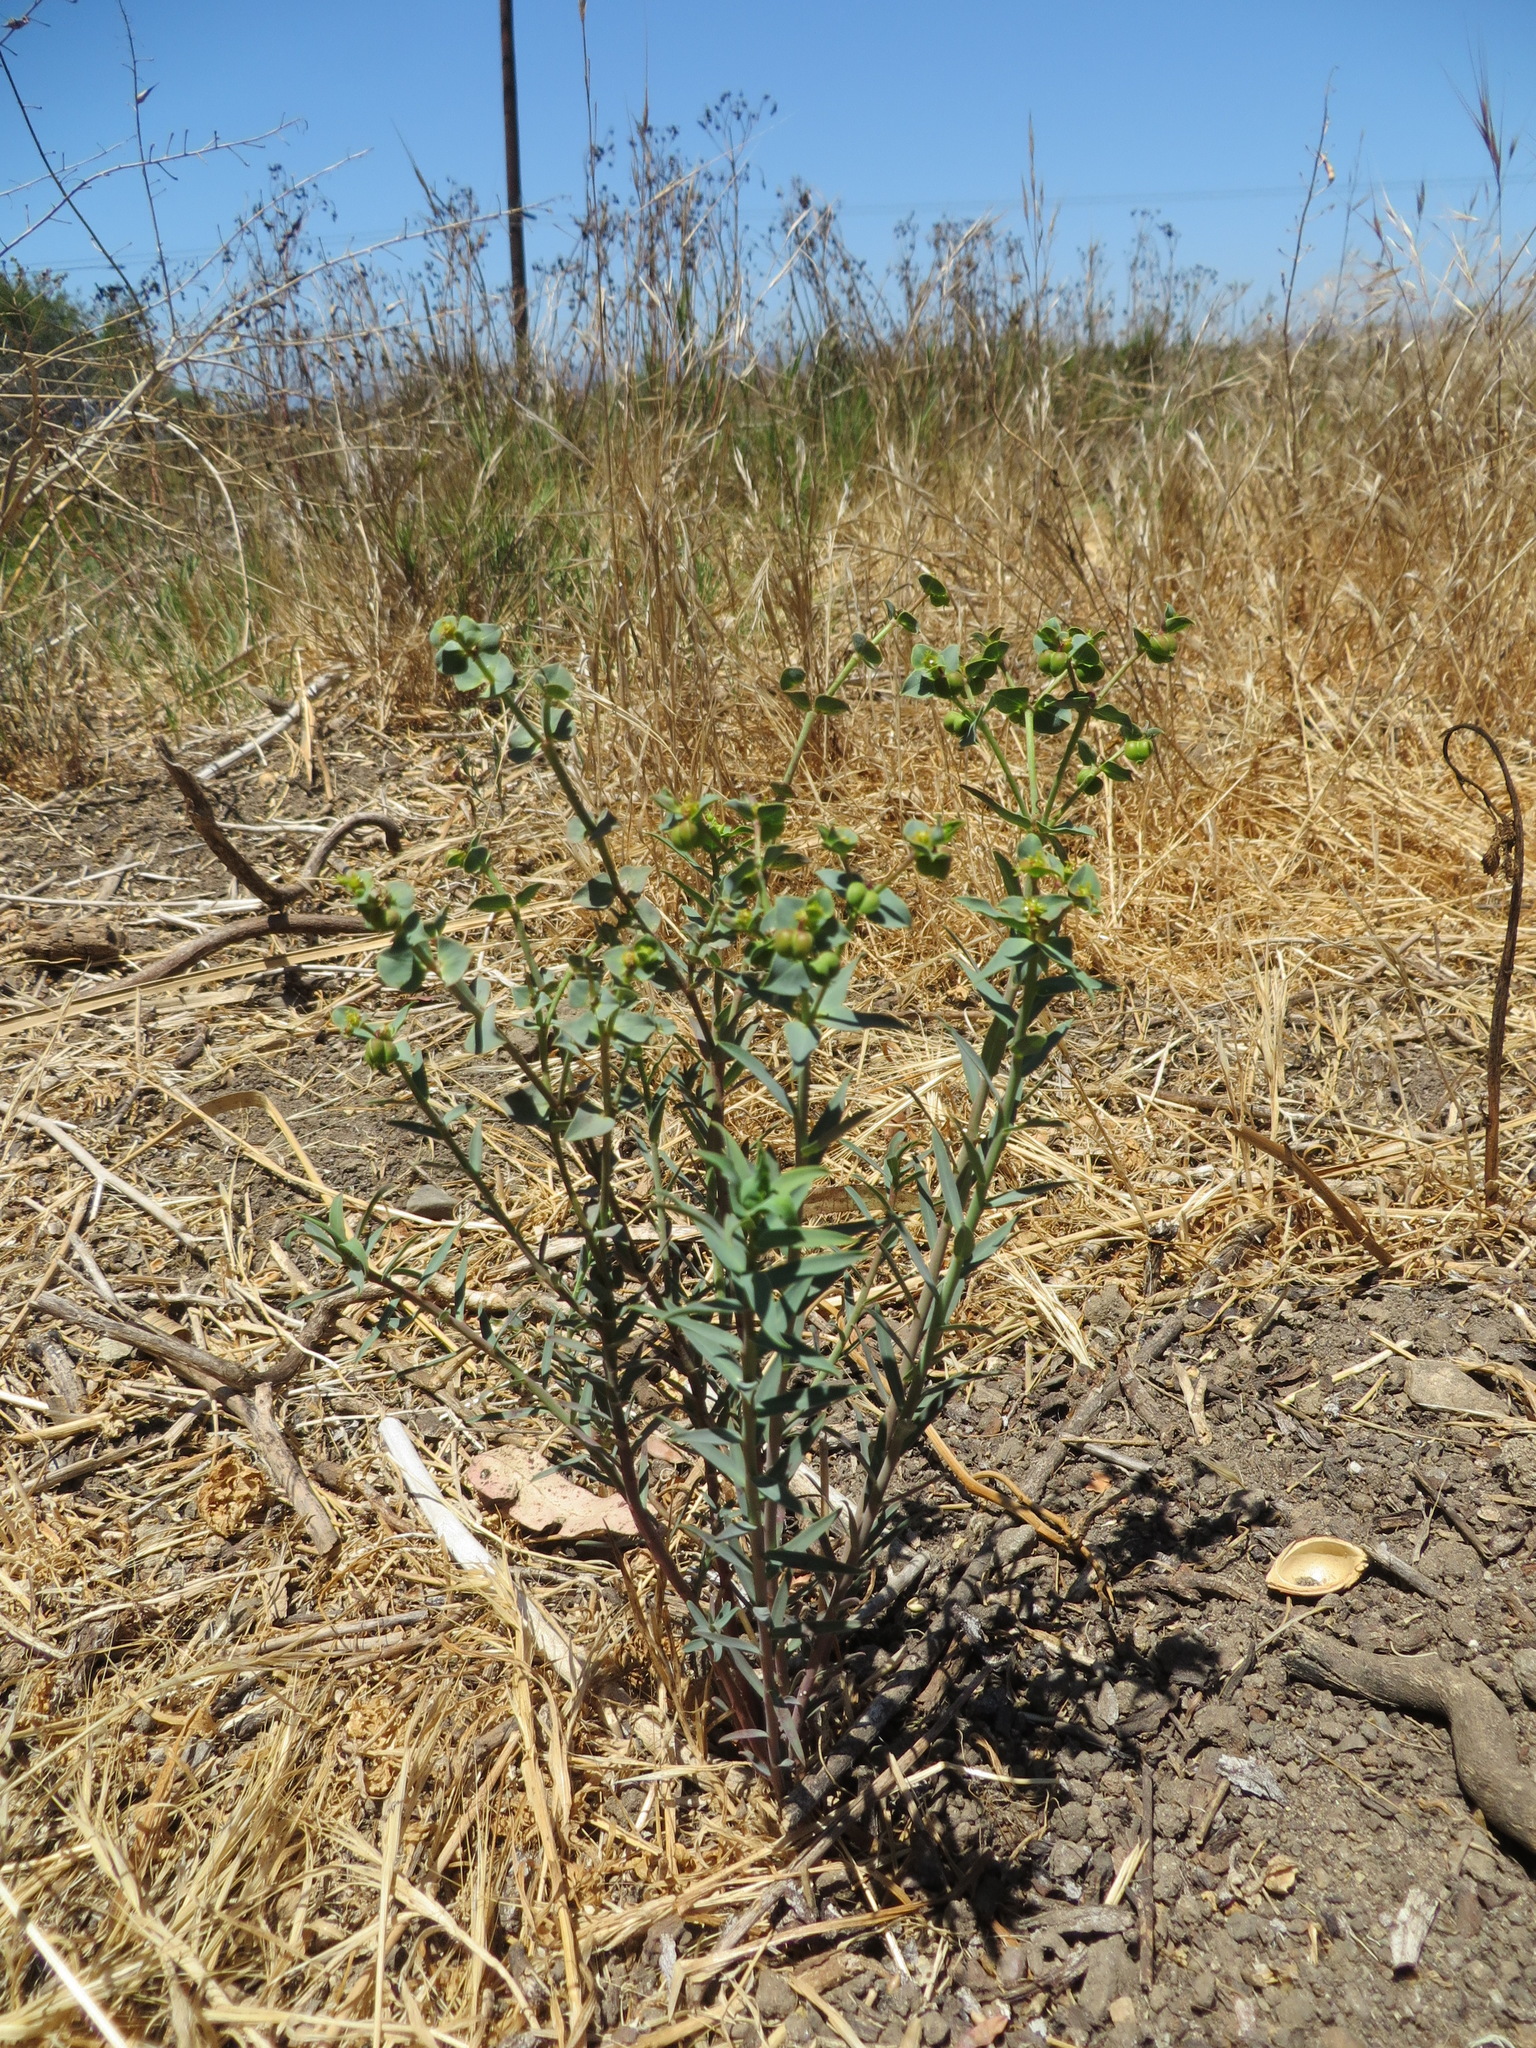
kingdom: Plantae
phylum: Tracheophyta
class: Magnoliopsida
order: Malpighiales
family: Euphorbiaceae
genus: Euphorbia
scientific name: Euphorbia terracina
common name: Geraldton carnation weed
